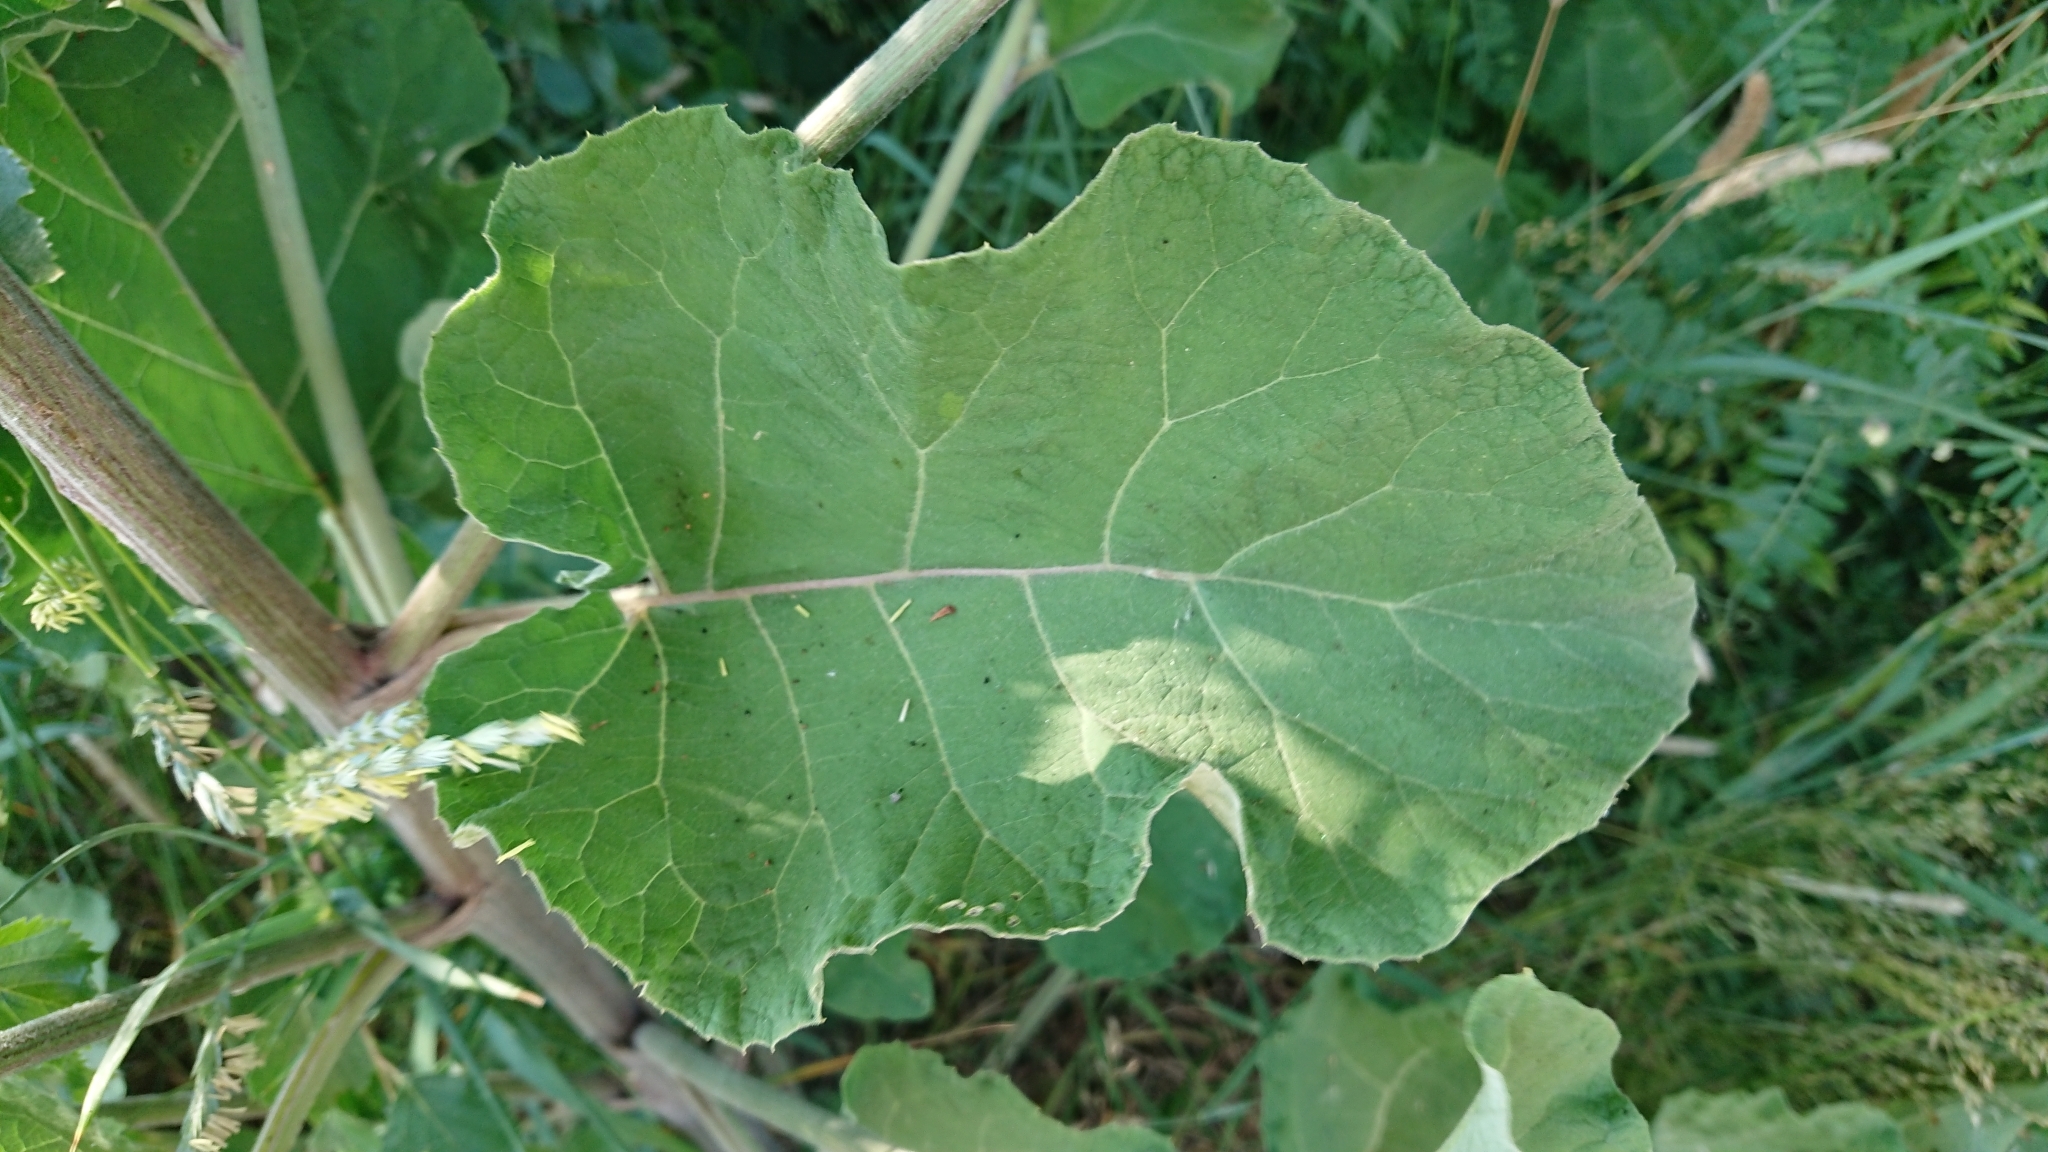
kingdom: Plantae
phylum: Tracheophyta
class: Magnoliopsida
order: Asterales
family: Asteraceae
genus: Arctium
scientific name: Arctium tomentosum
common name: Woolly burdock
